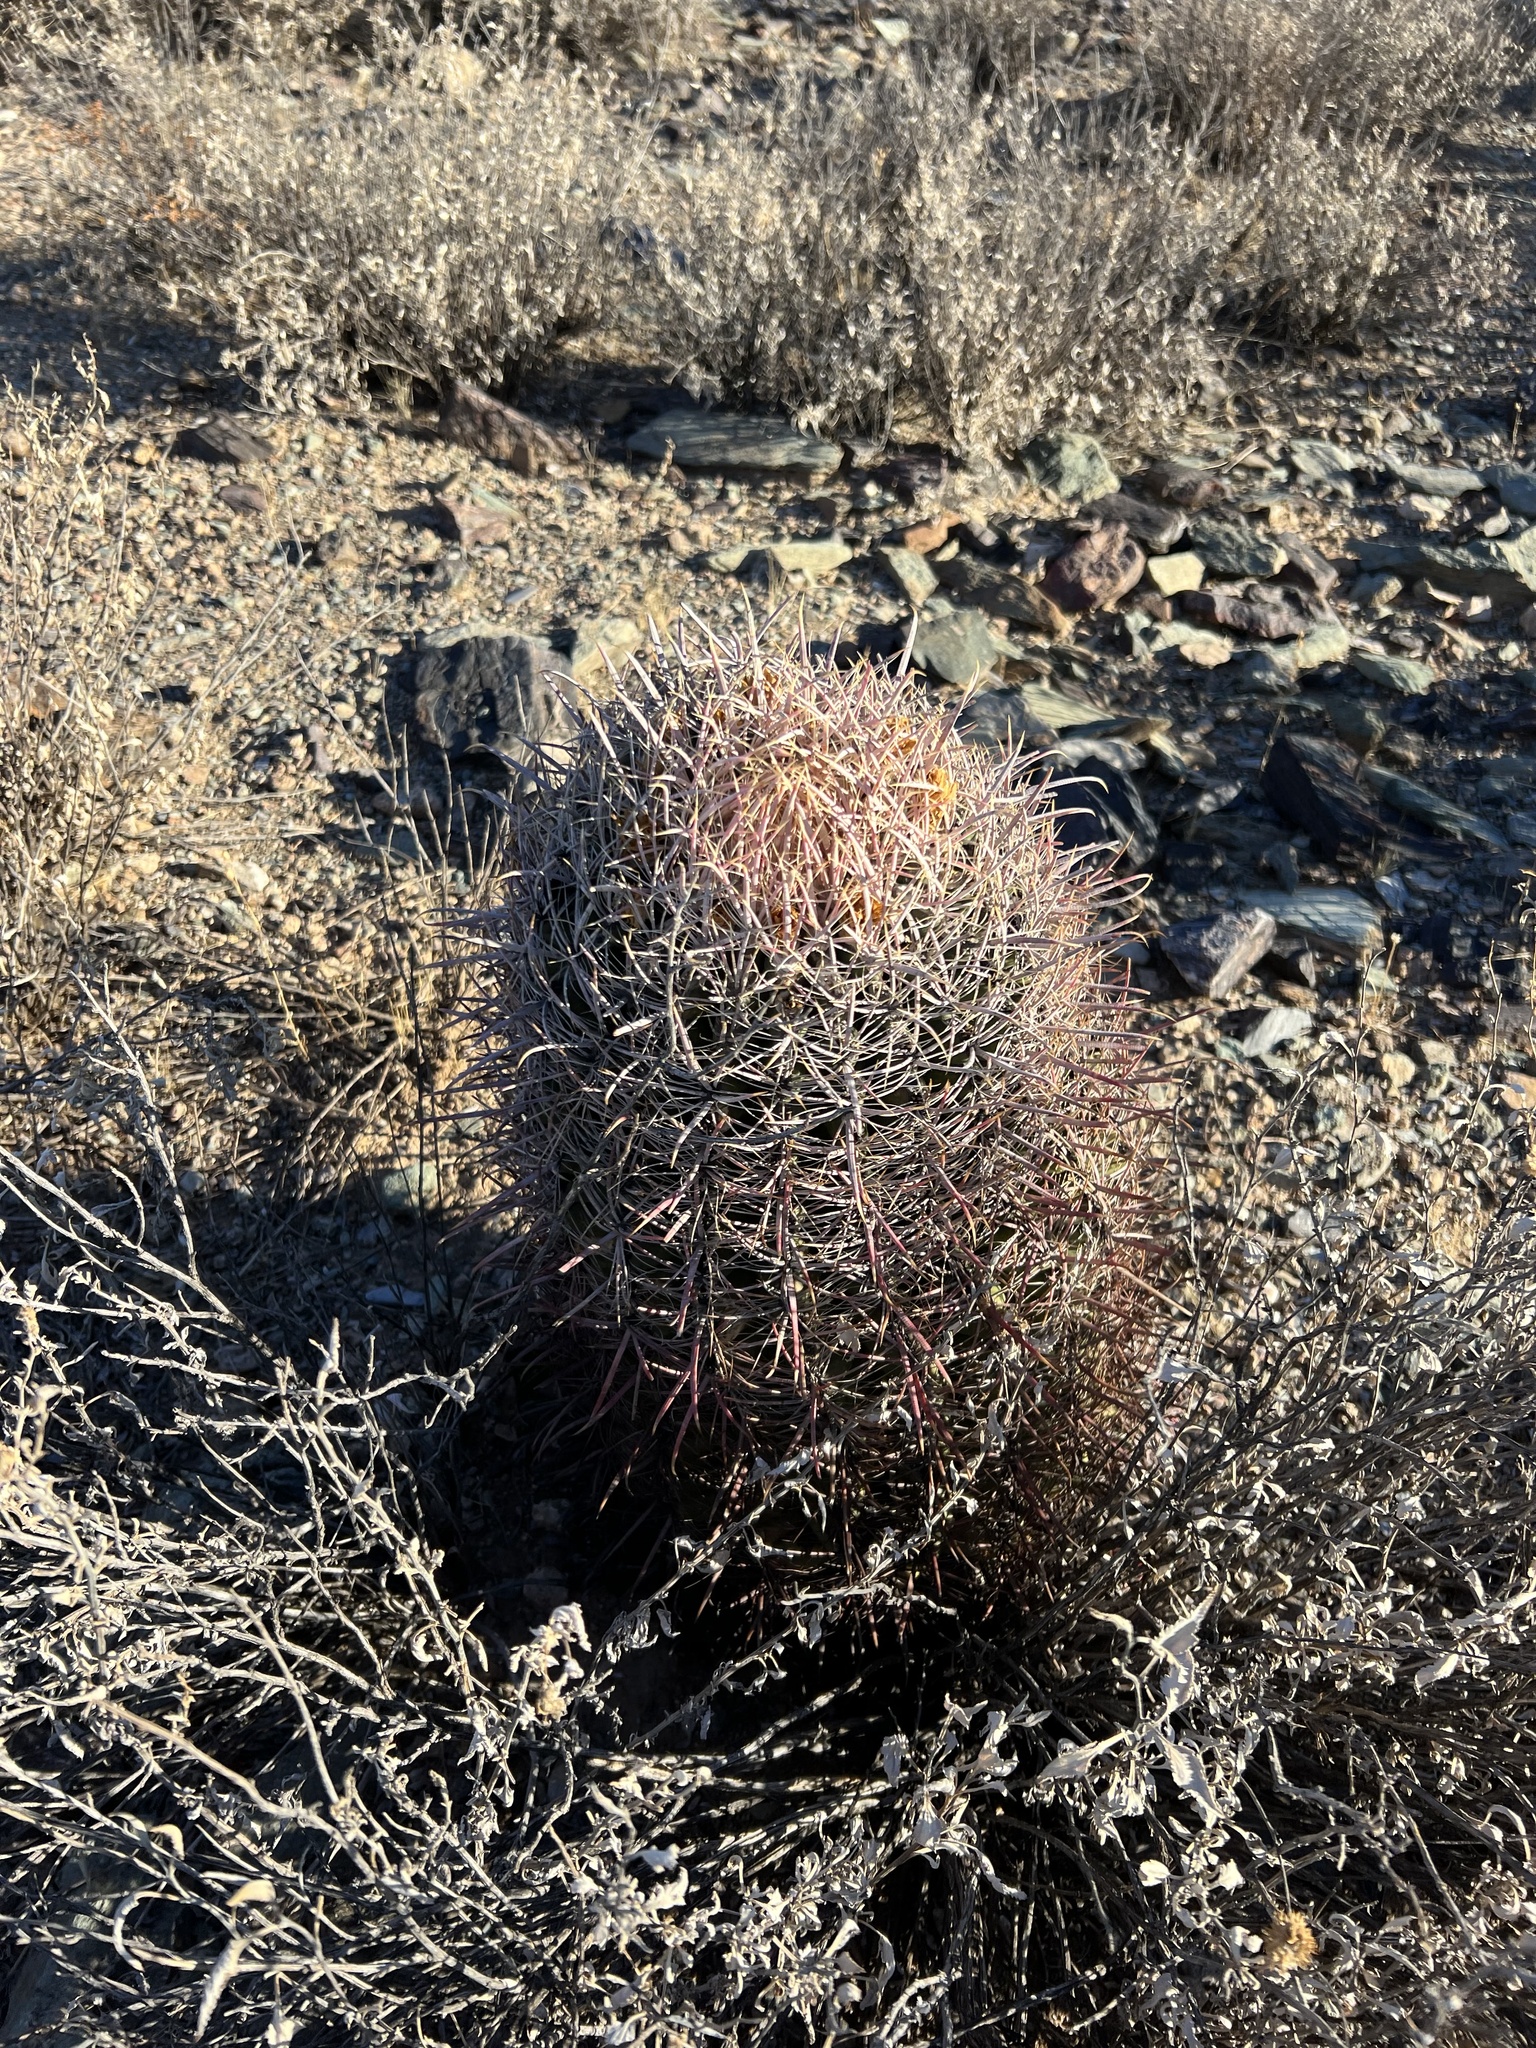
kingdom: Plantae
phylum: Tracheophyta
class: Magnoliopsida
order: Caryophyllales
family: Cactaceae
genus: Ferocactus
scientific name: Ferocactus cylindraceus
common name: California barrel cactus
